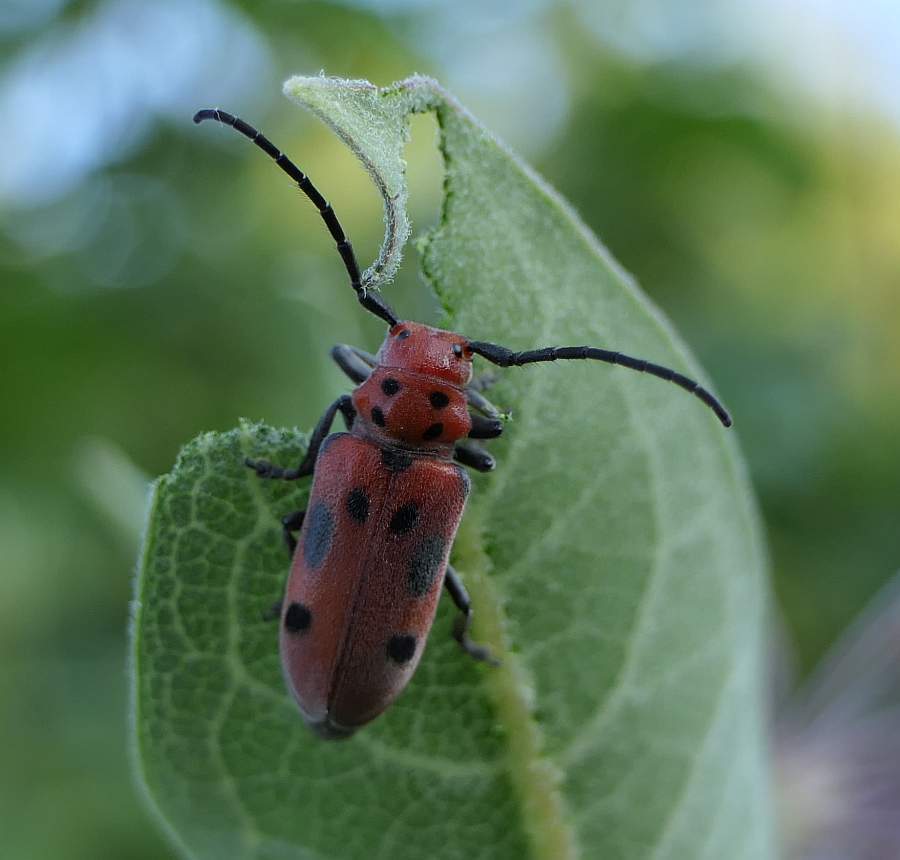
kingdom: Animalia
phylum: Arthropoda
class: Insecta
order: Coleoptera
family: Cerambycidae
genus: Tetraopes
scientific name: Tetraopes tetrophthalmus
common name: Red milkweed beetle
